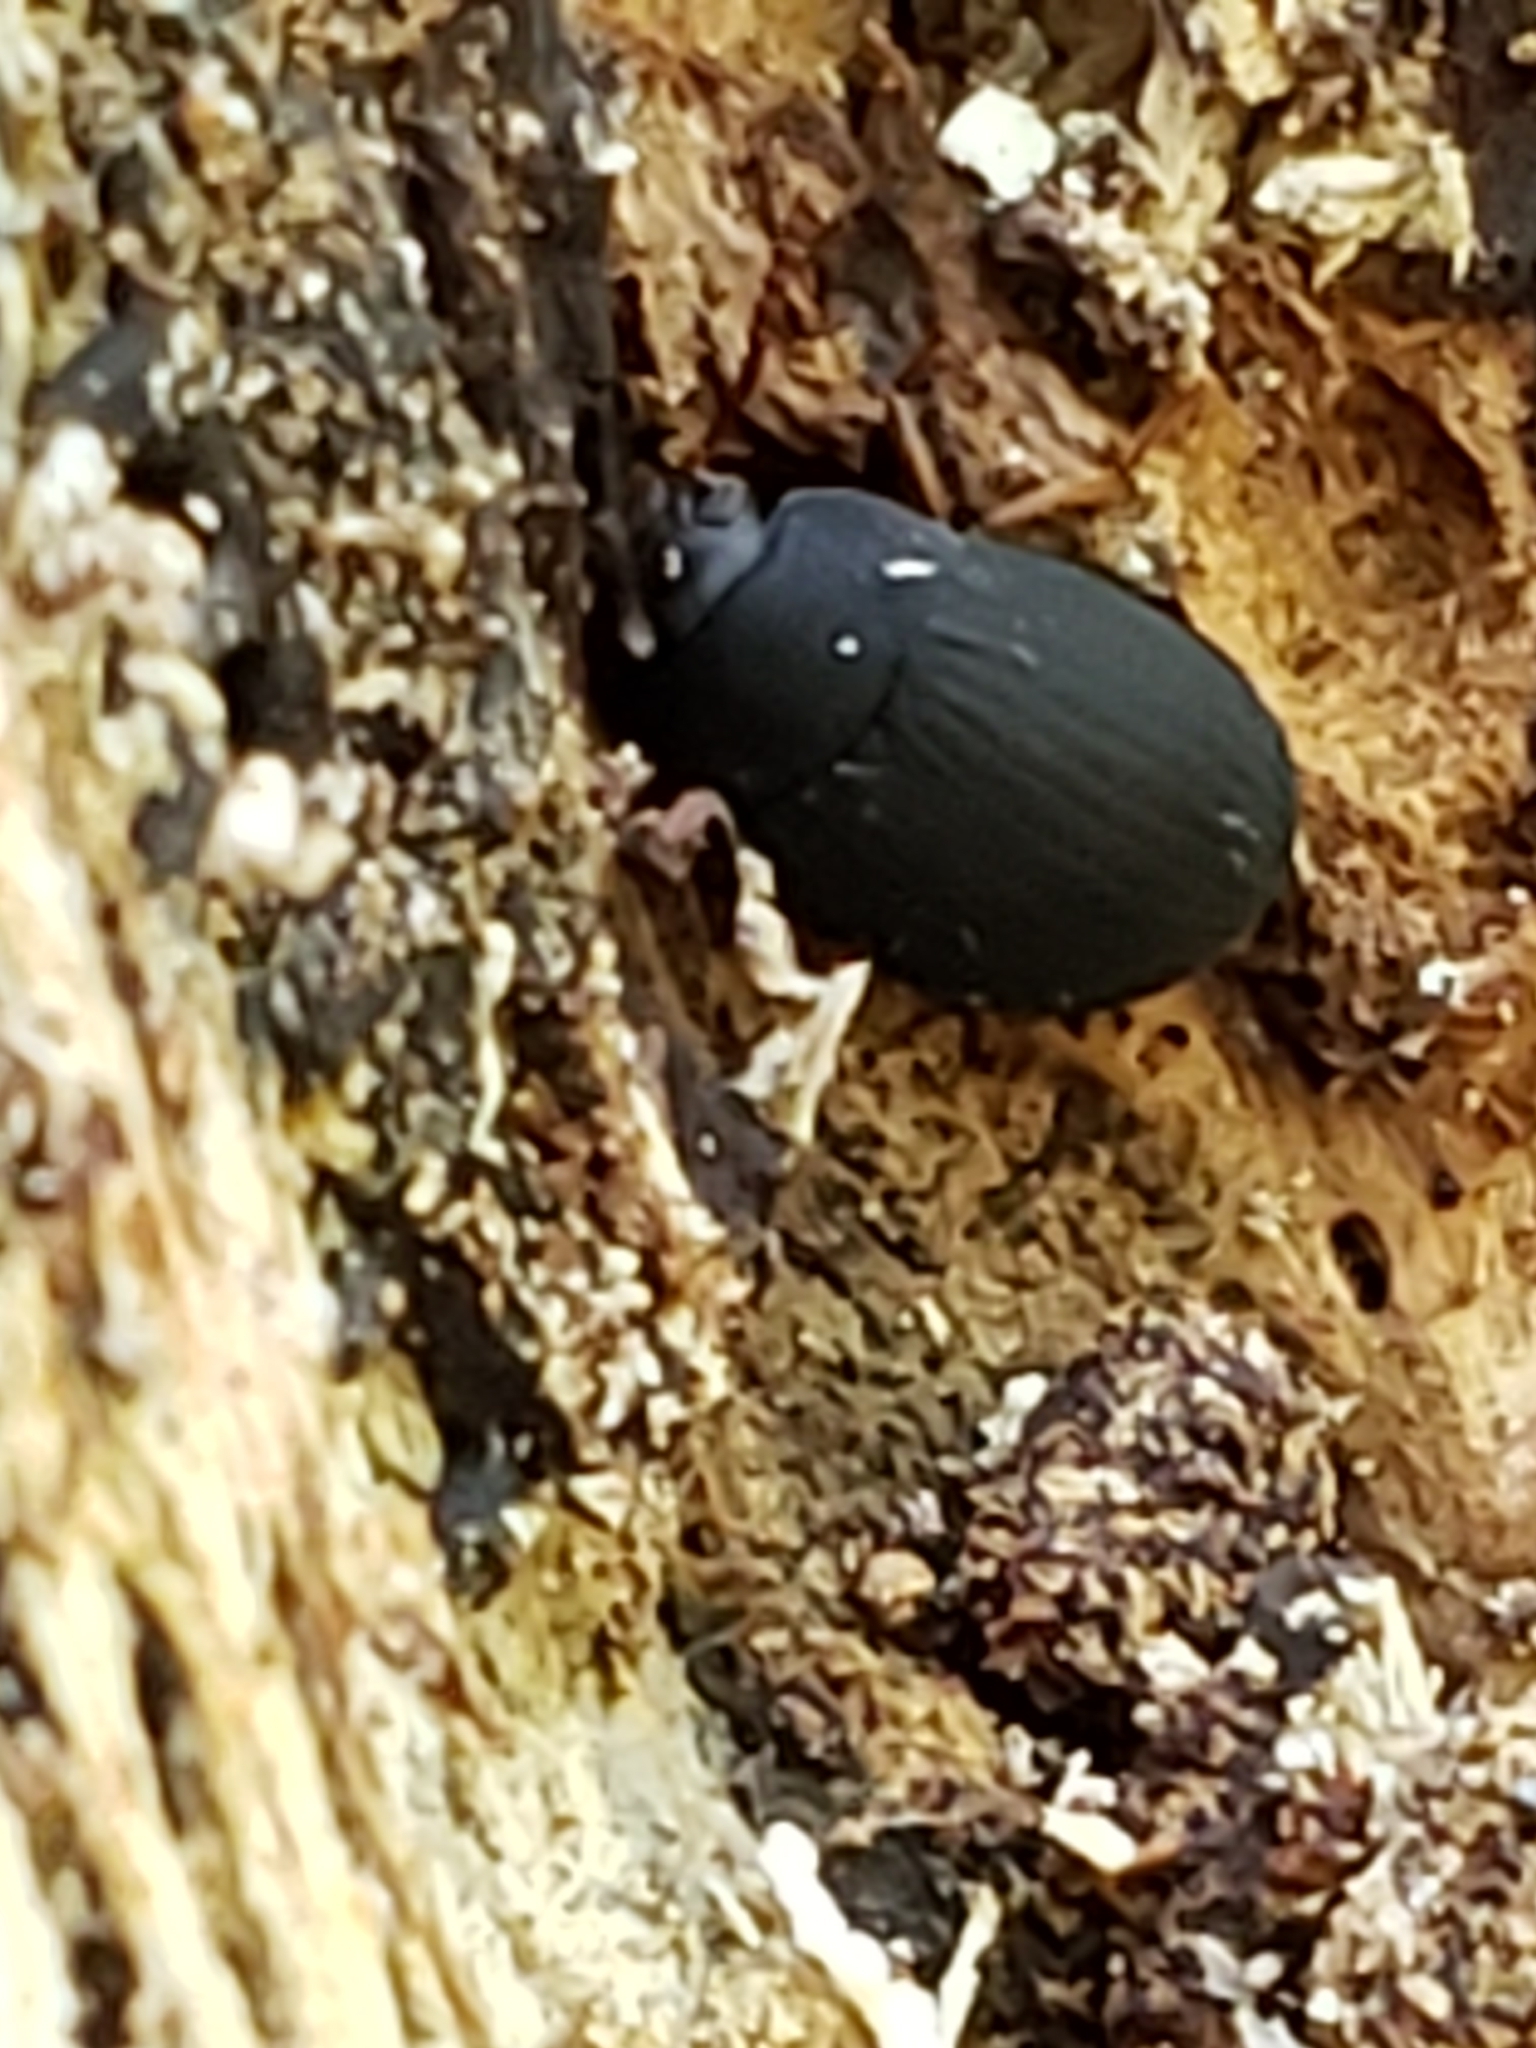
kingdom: Animalia
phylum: Arthropoda
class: Insecta
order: Coleoptera
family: Tenebrionidae
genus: Platydema
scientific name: Platydema ruficornis
